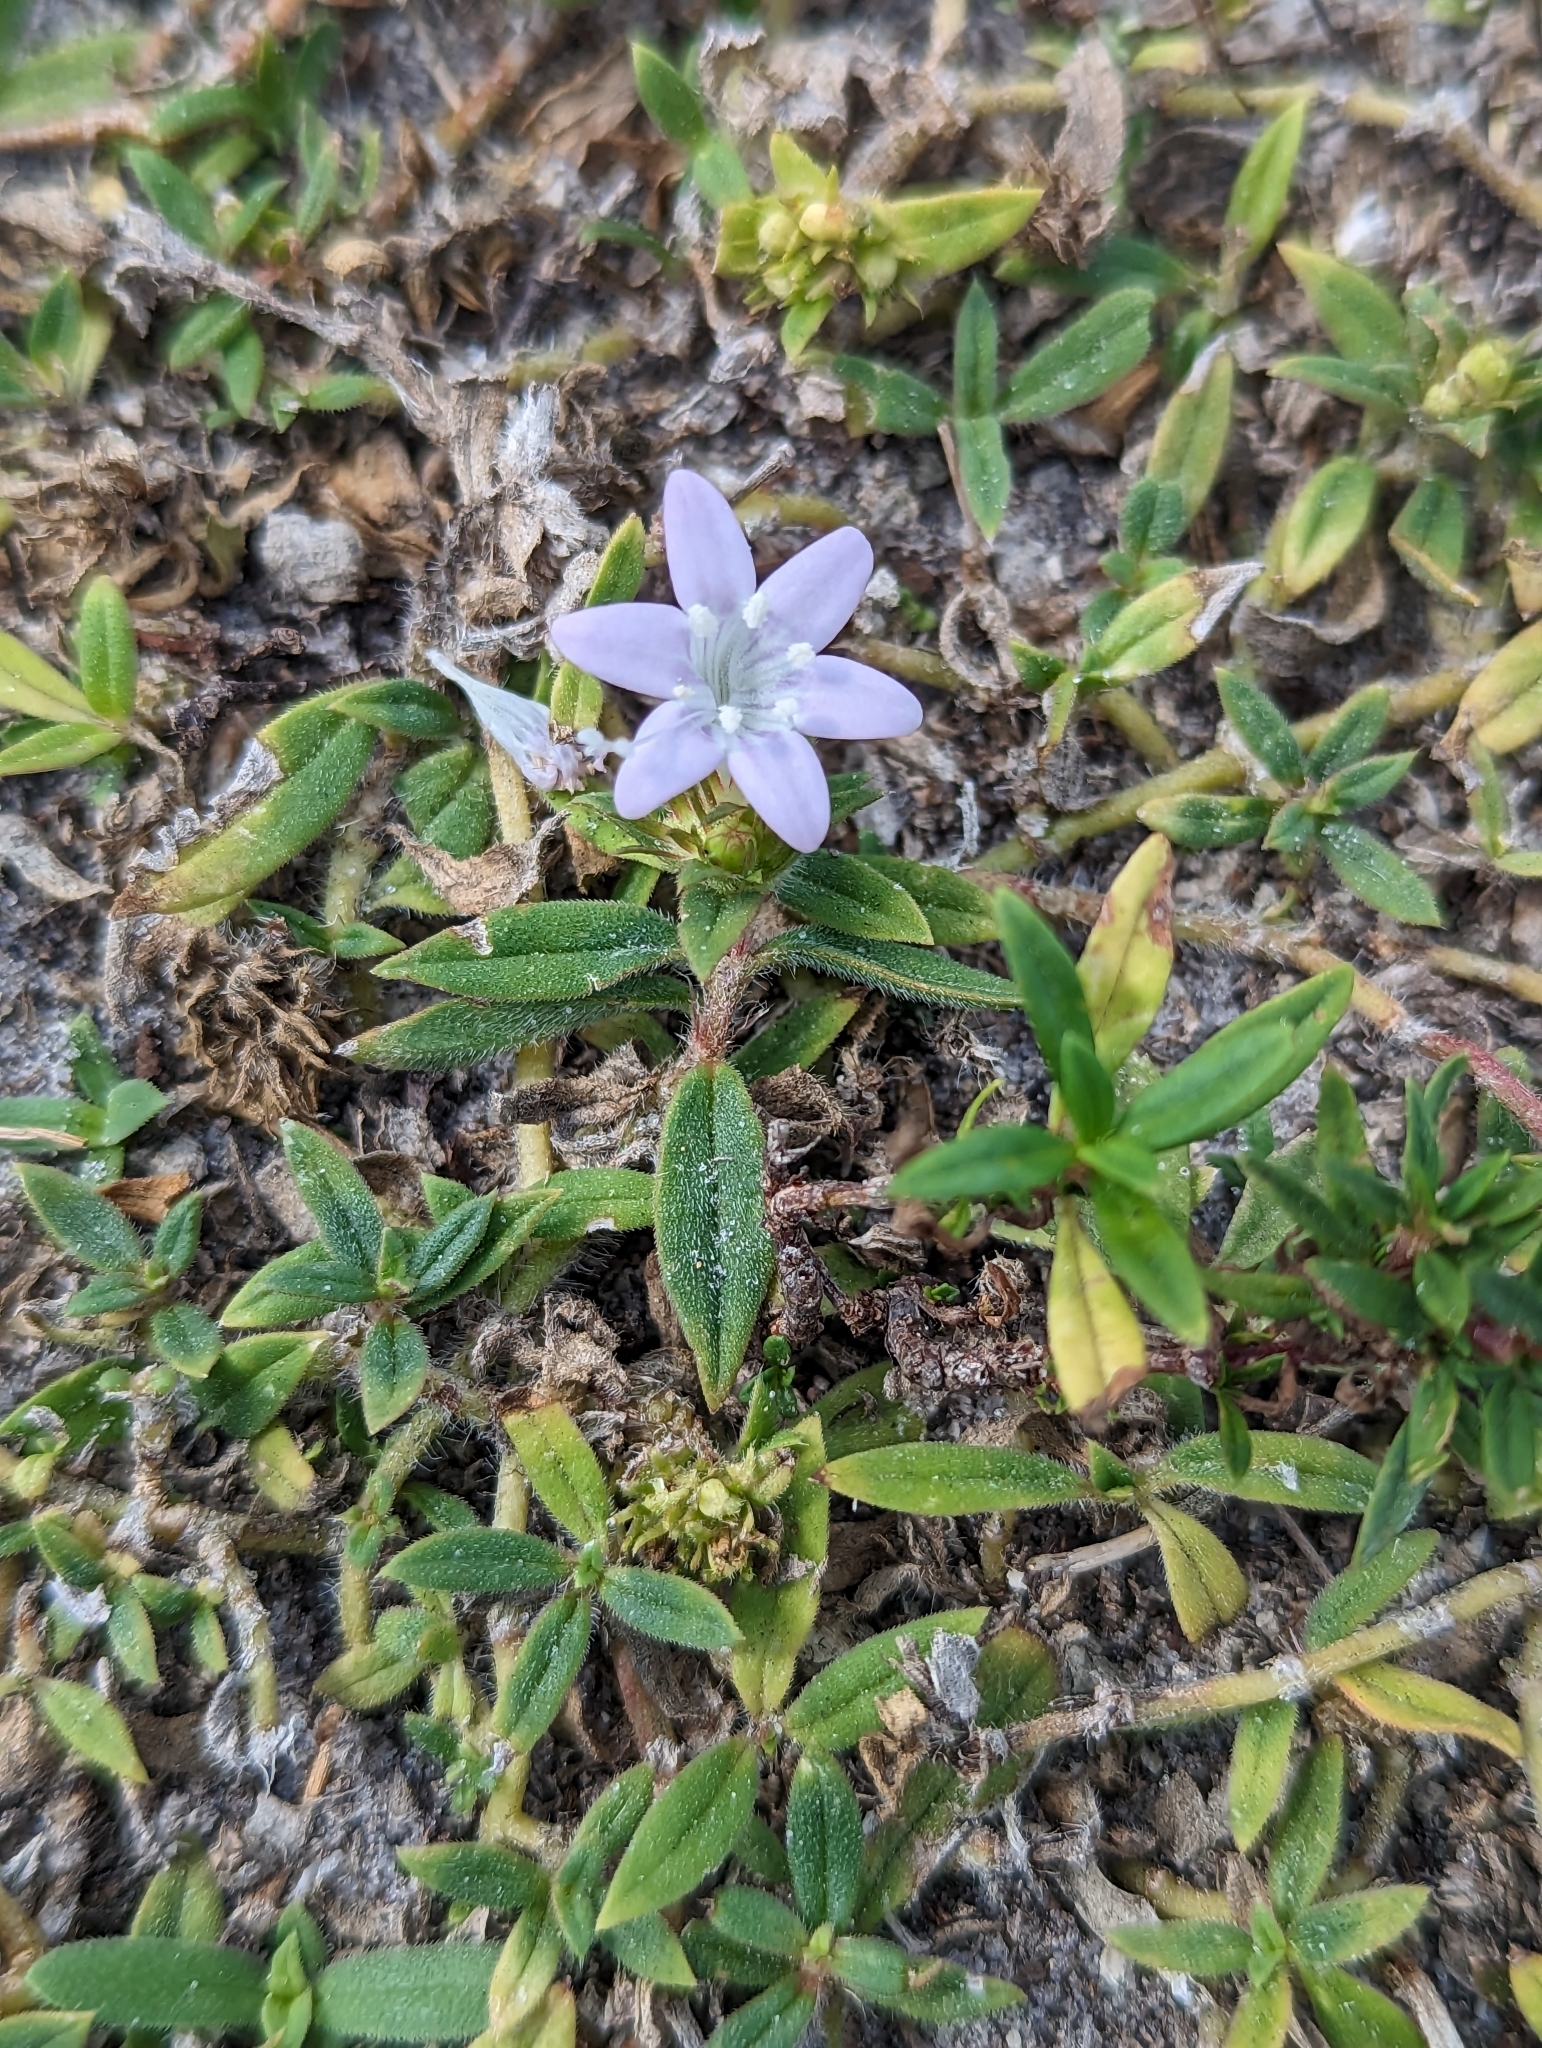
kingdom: Plantae
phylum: Tracheophyta
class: Magnoliopsida
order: Gentianales
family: Rubiaceae
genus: Richardia
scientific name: Richardia grandiflora
